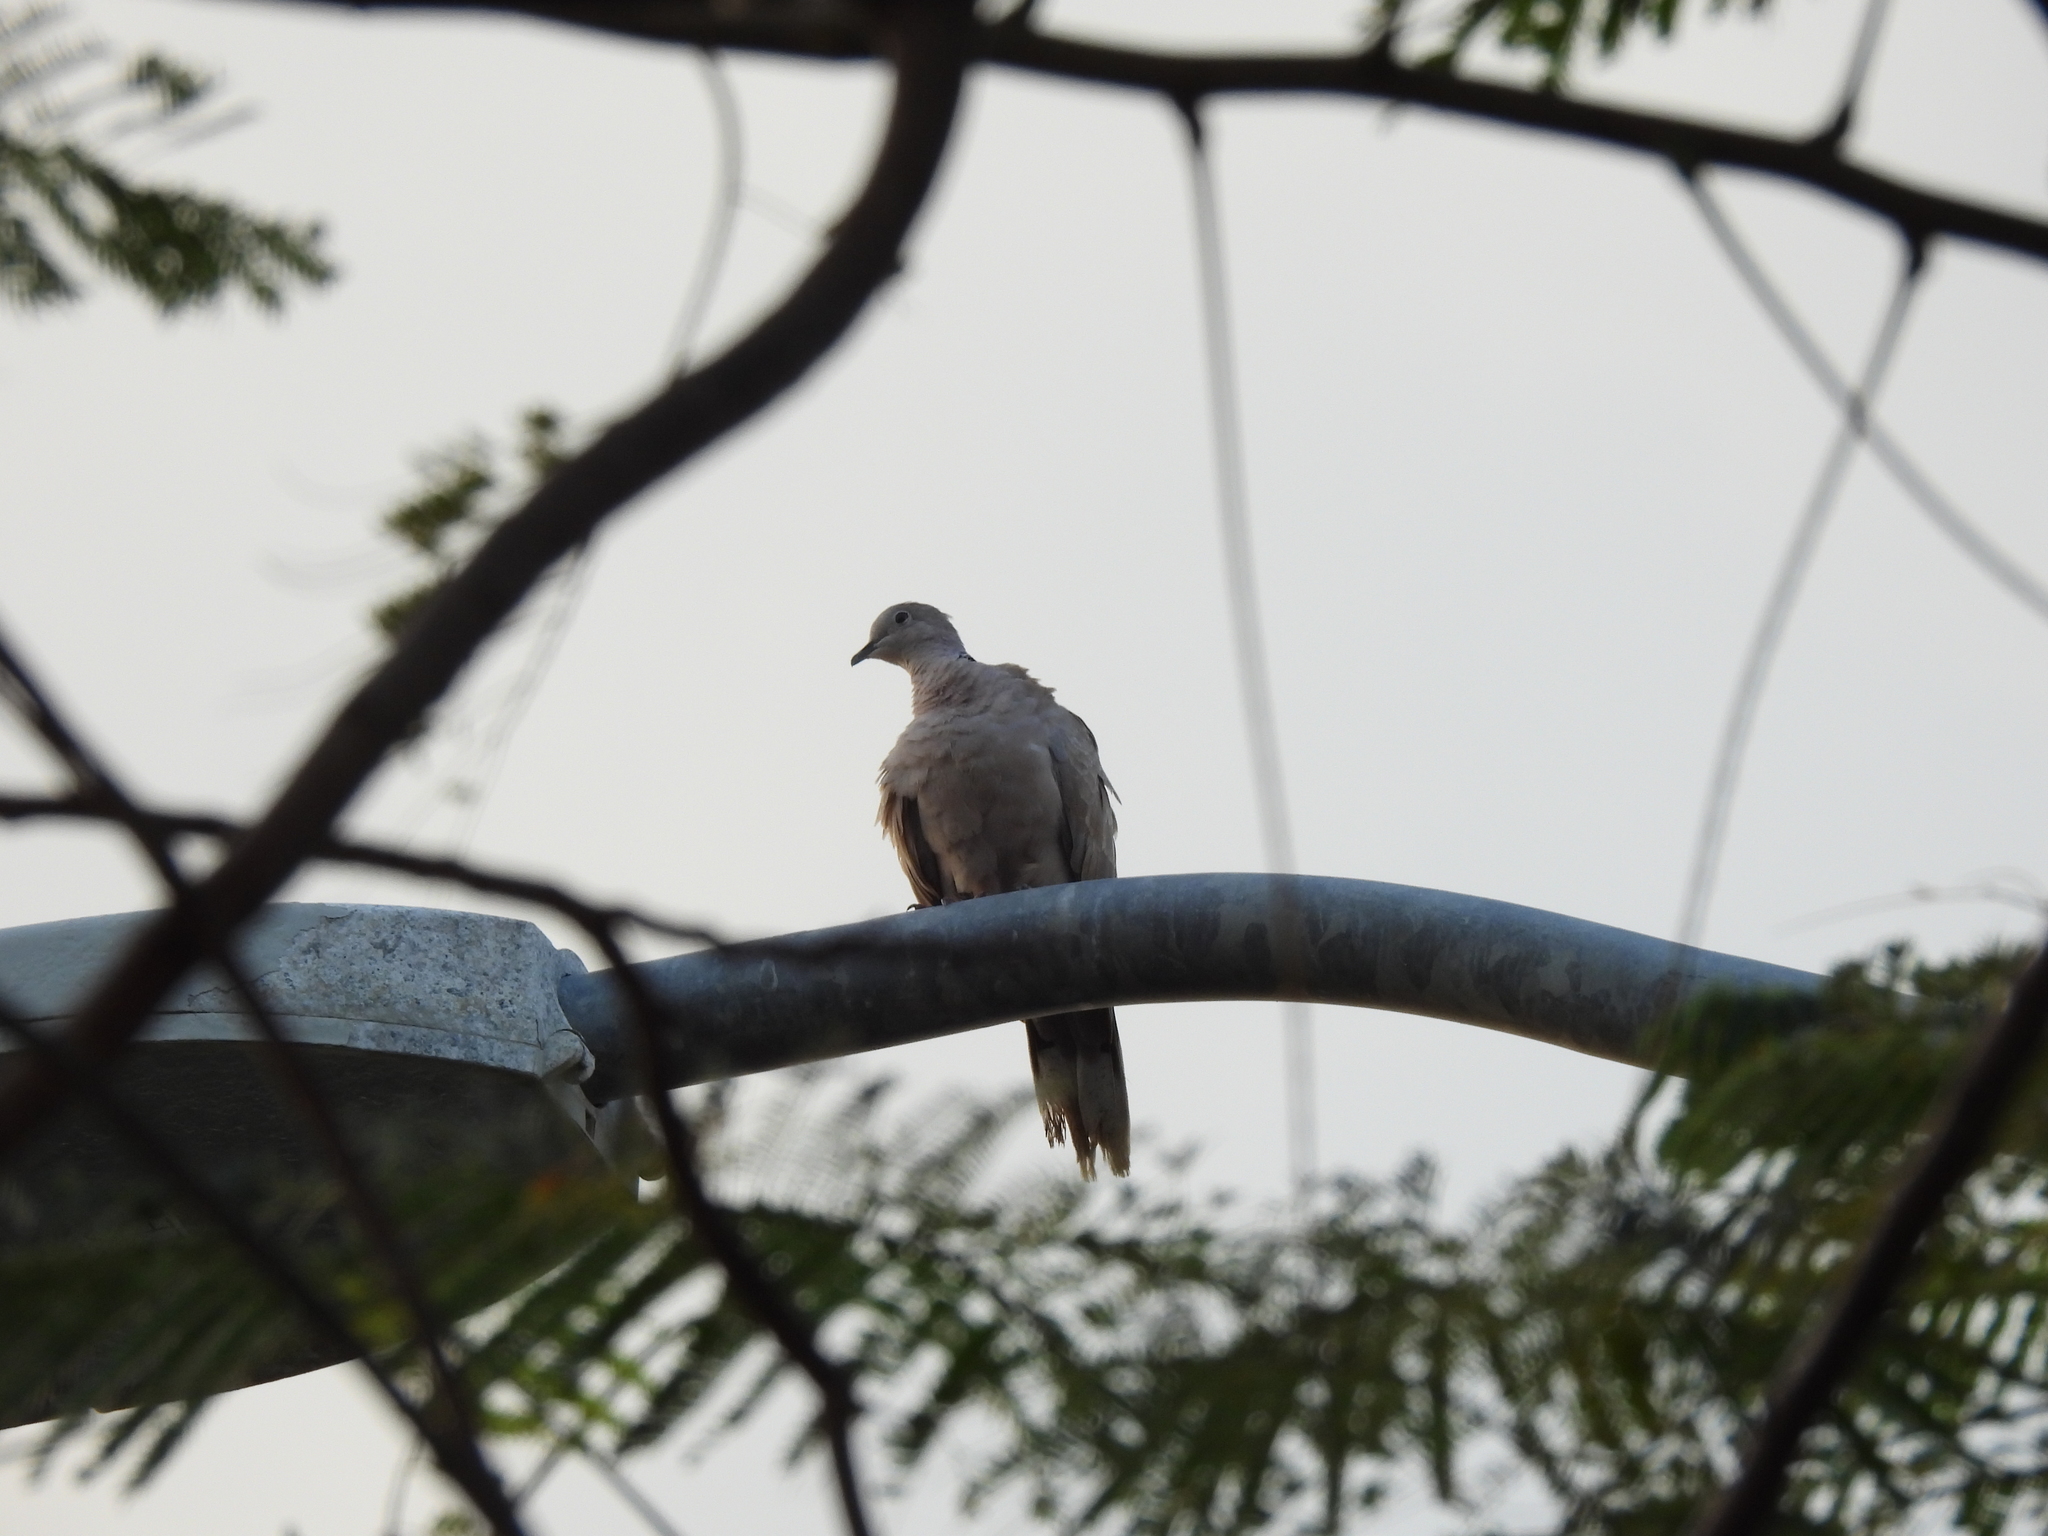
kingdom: Animalia
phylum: Chordata
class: Aves
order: Columbiformes
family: Columbidae
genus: Streptopelia
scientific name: Streptopelia decaocto
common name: Eurasian collared dove
